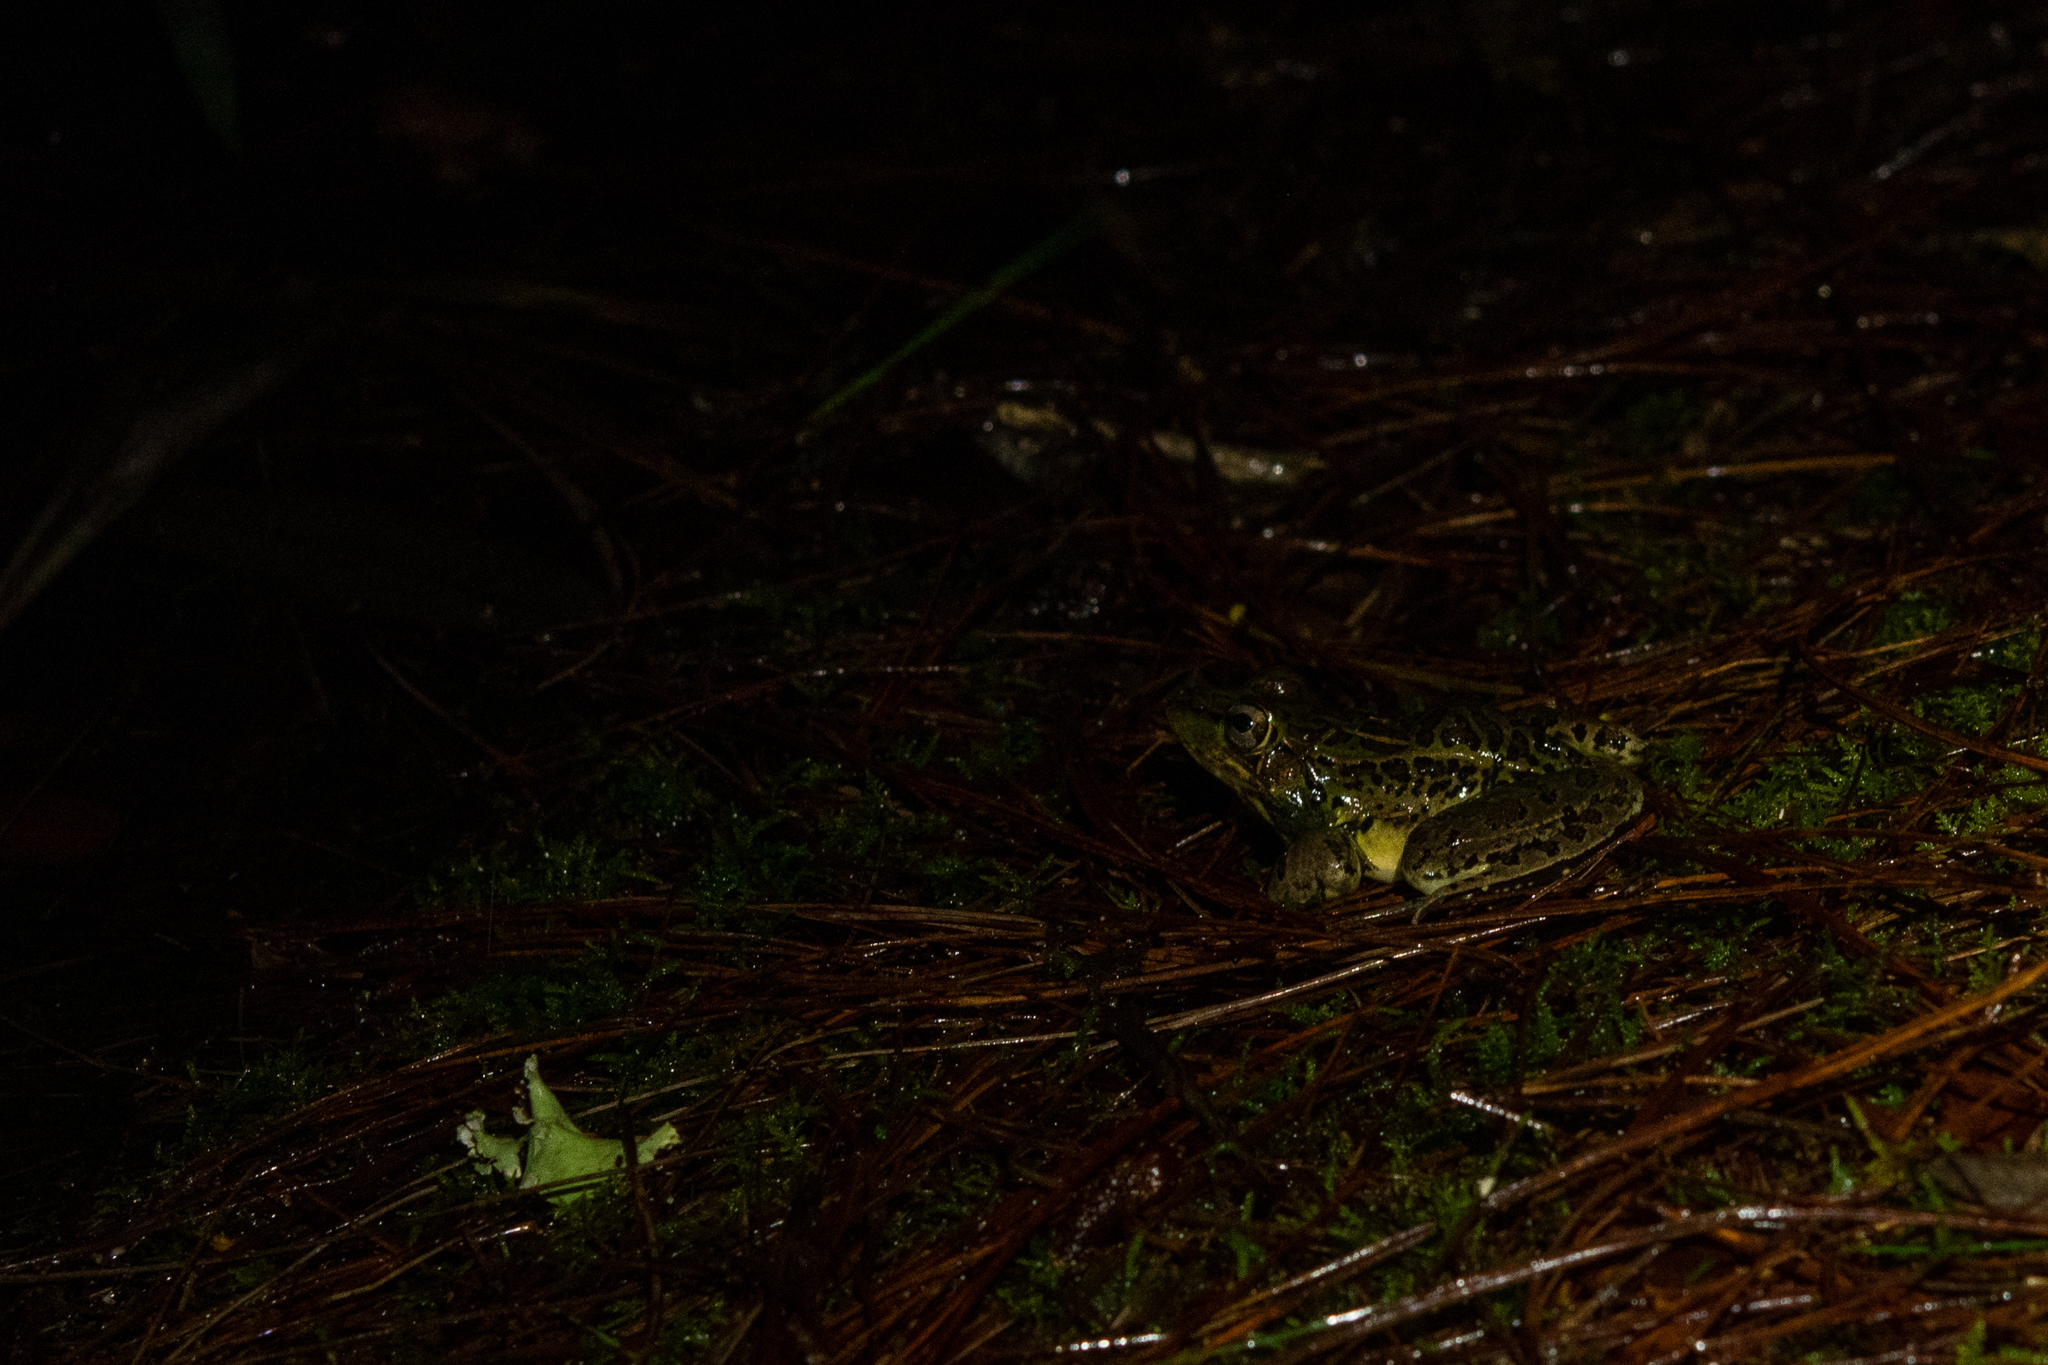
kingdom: Animalia
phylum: Chordata
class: Amphibia
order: Anura
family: Ranidae
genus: Lithobates
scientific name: Lithobates lenca
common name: Lenca leopard frog
